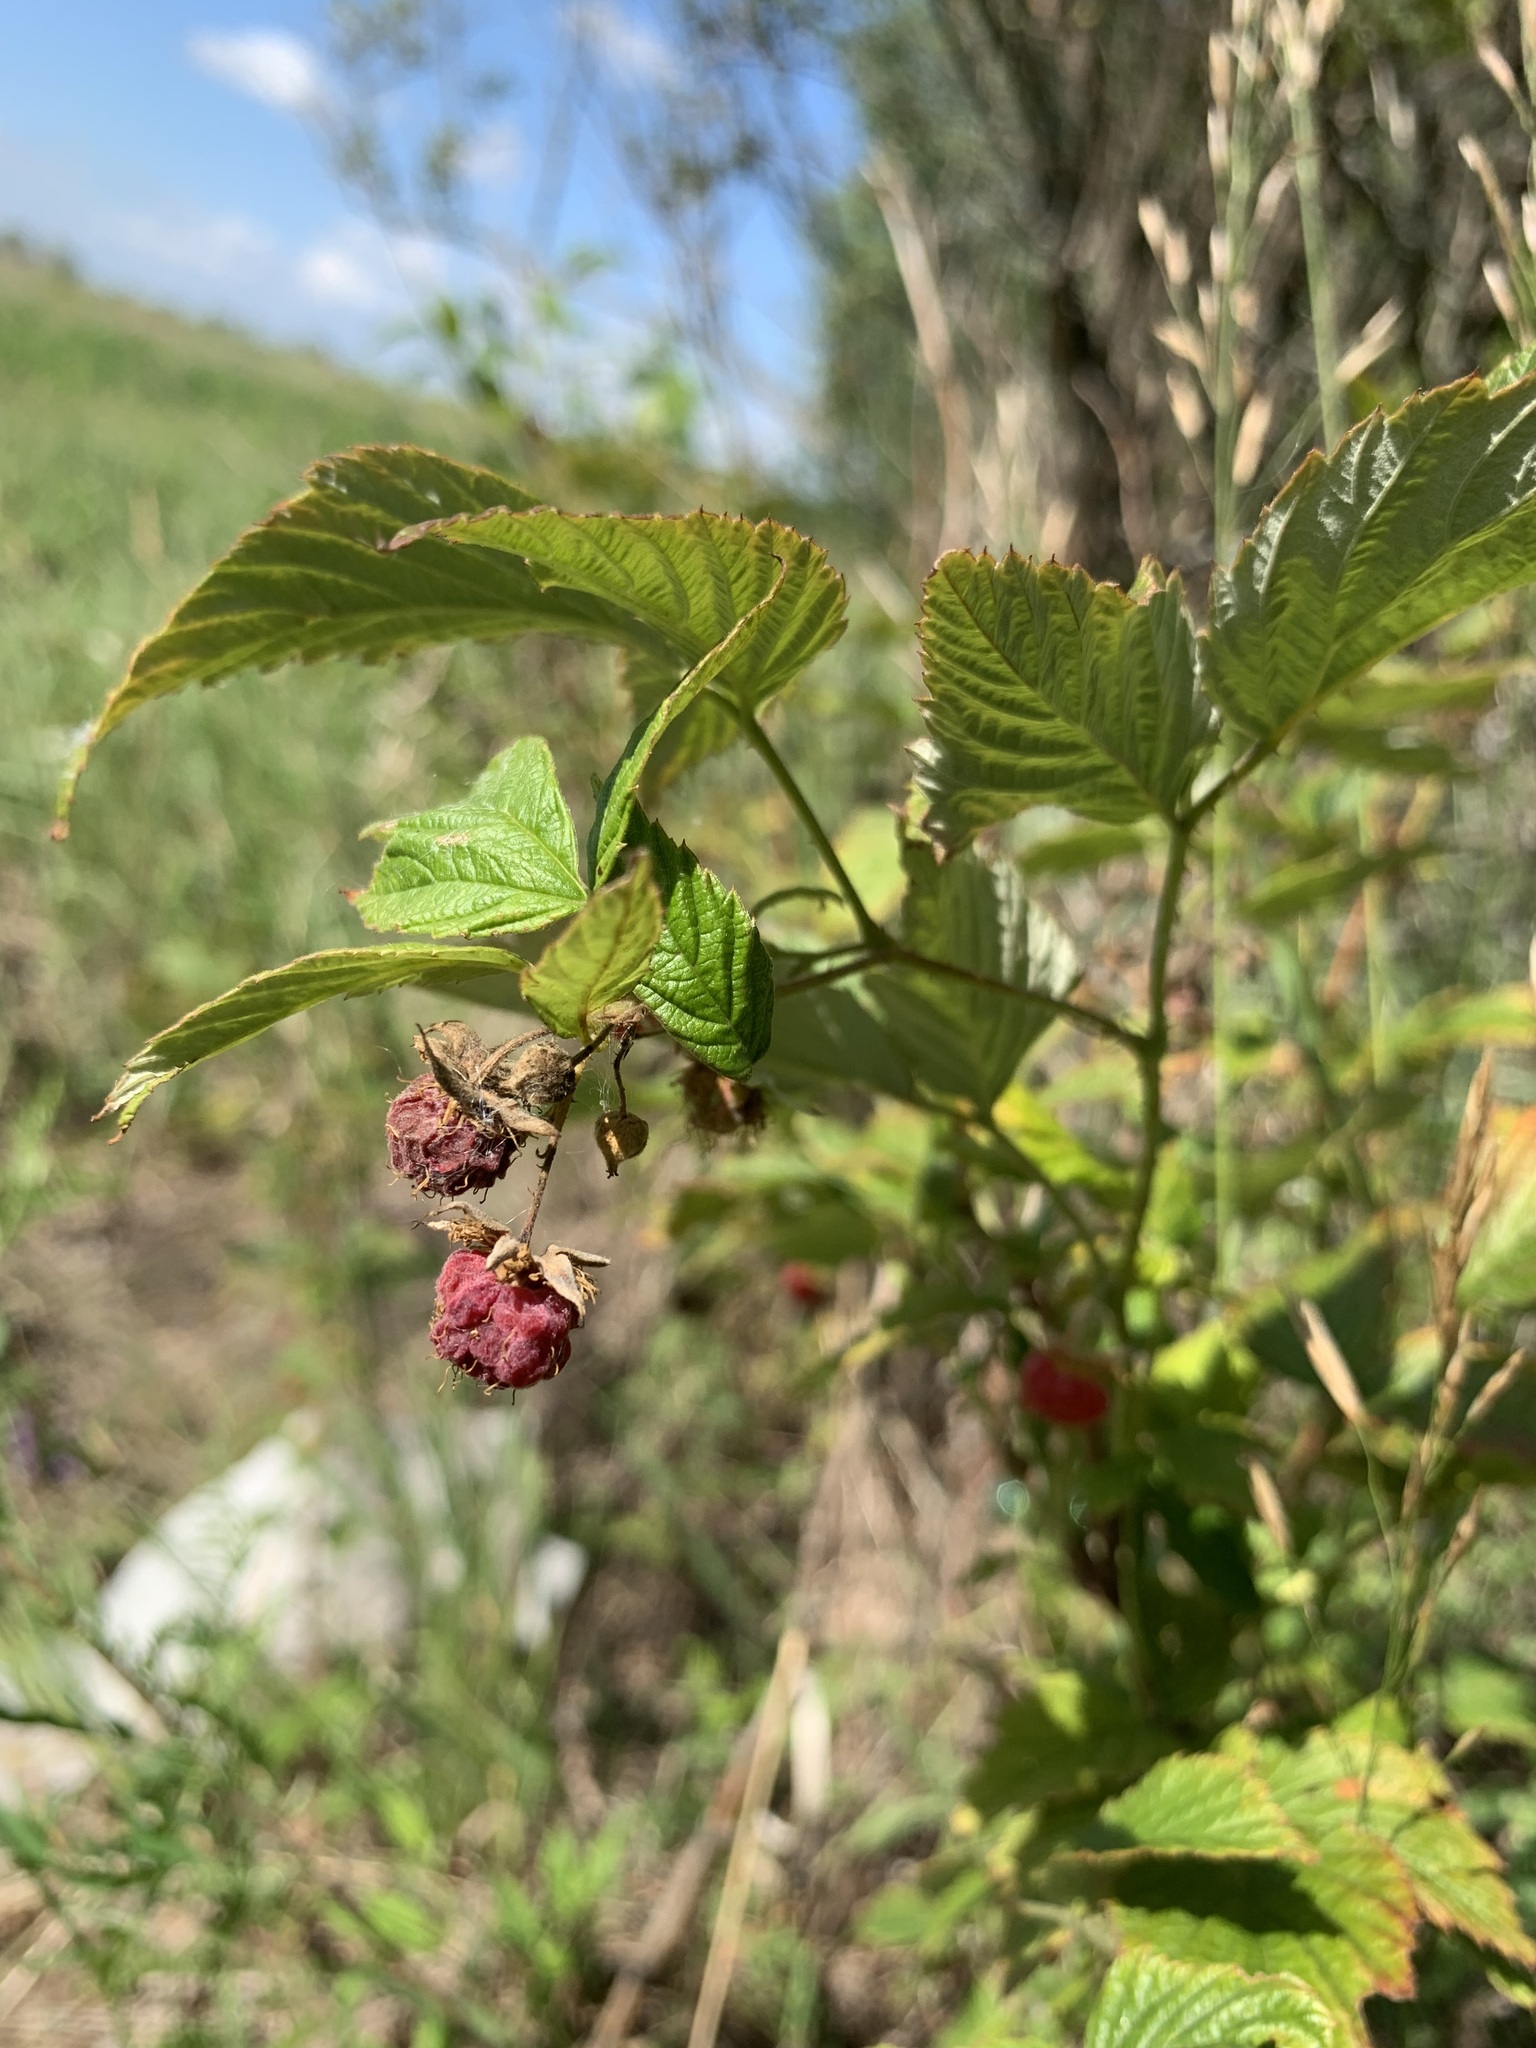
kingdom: Plantae
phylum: Tracheophyta
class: Magnoliopsida
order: Rosales
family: Rosaceae
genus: Rubus
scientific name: Rubus idaeus
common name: Raspberry
